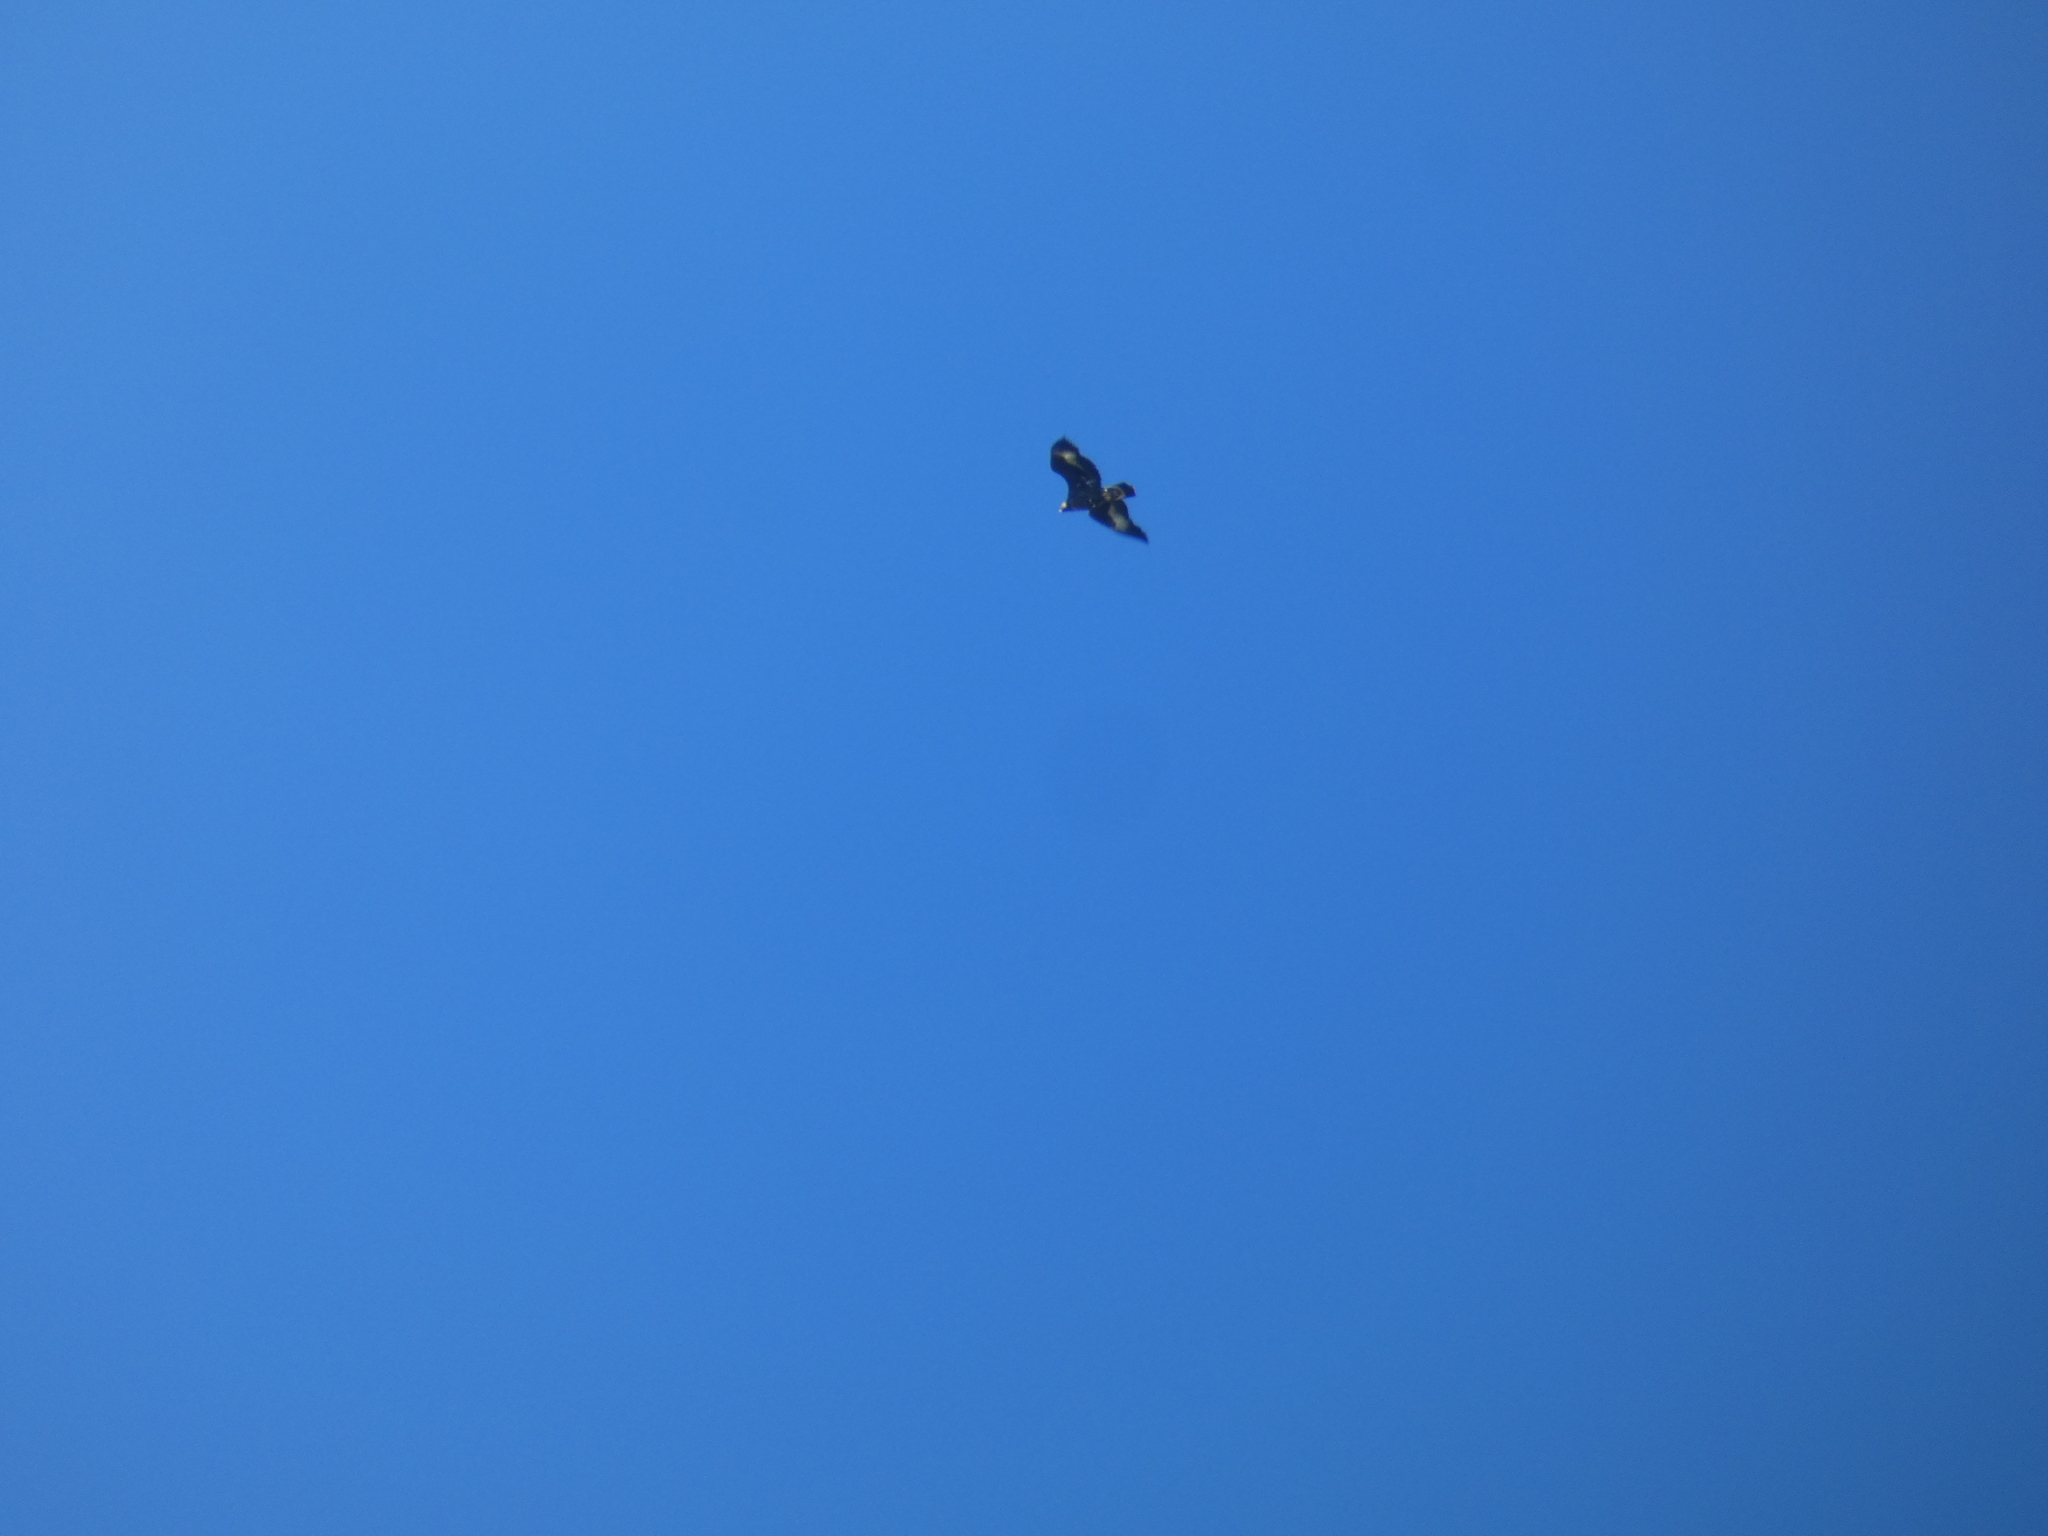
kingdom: Animalia
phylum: Chordata
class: Aves
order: Accipitriformes
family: Accipitridae
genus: Aquila
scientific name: Aquila chrysaetos
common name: Golden eagle
